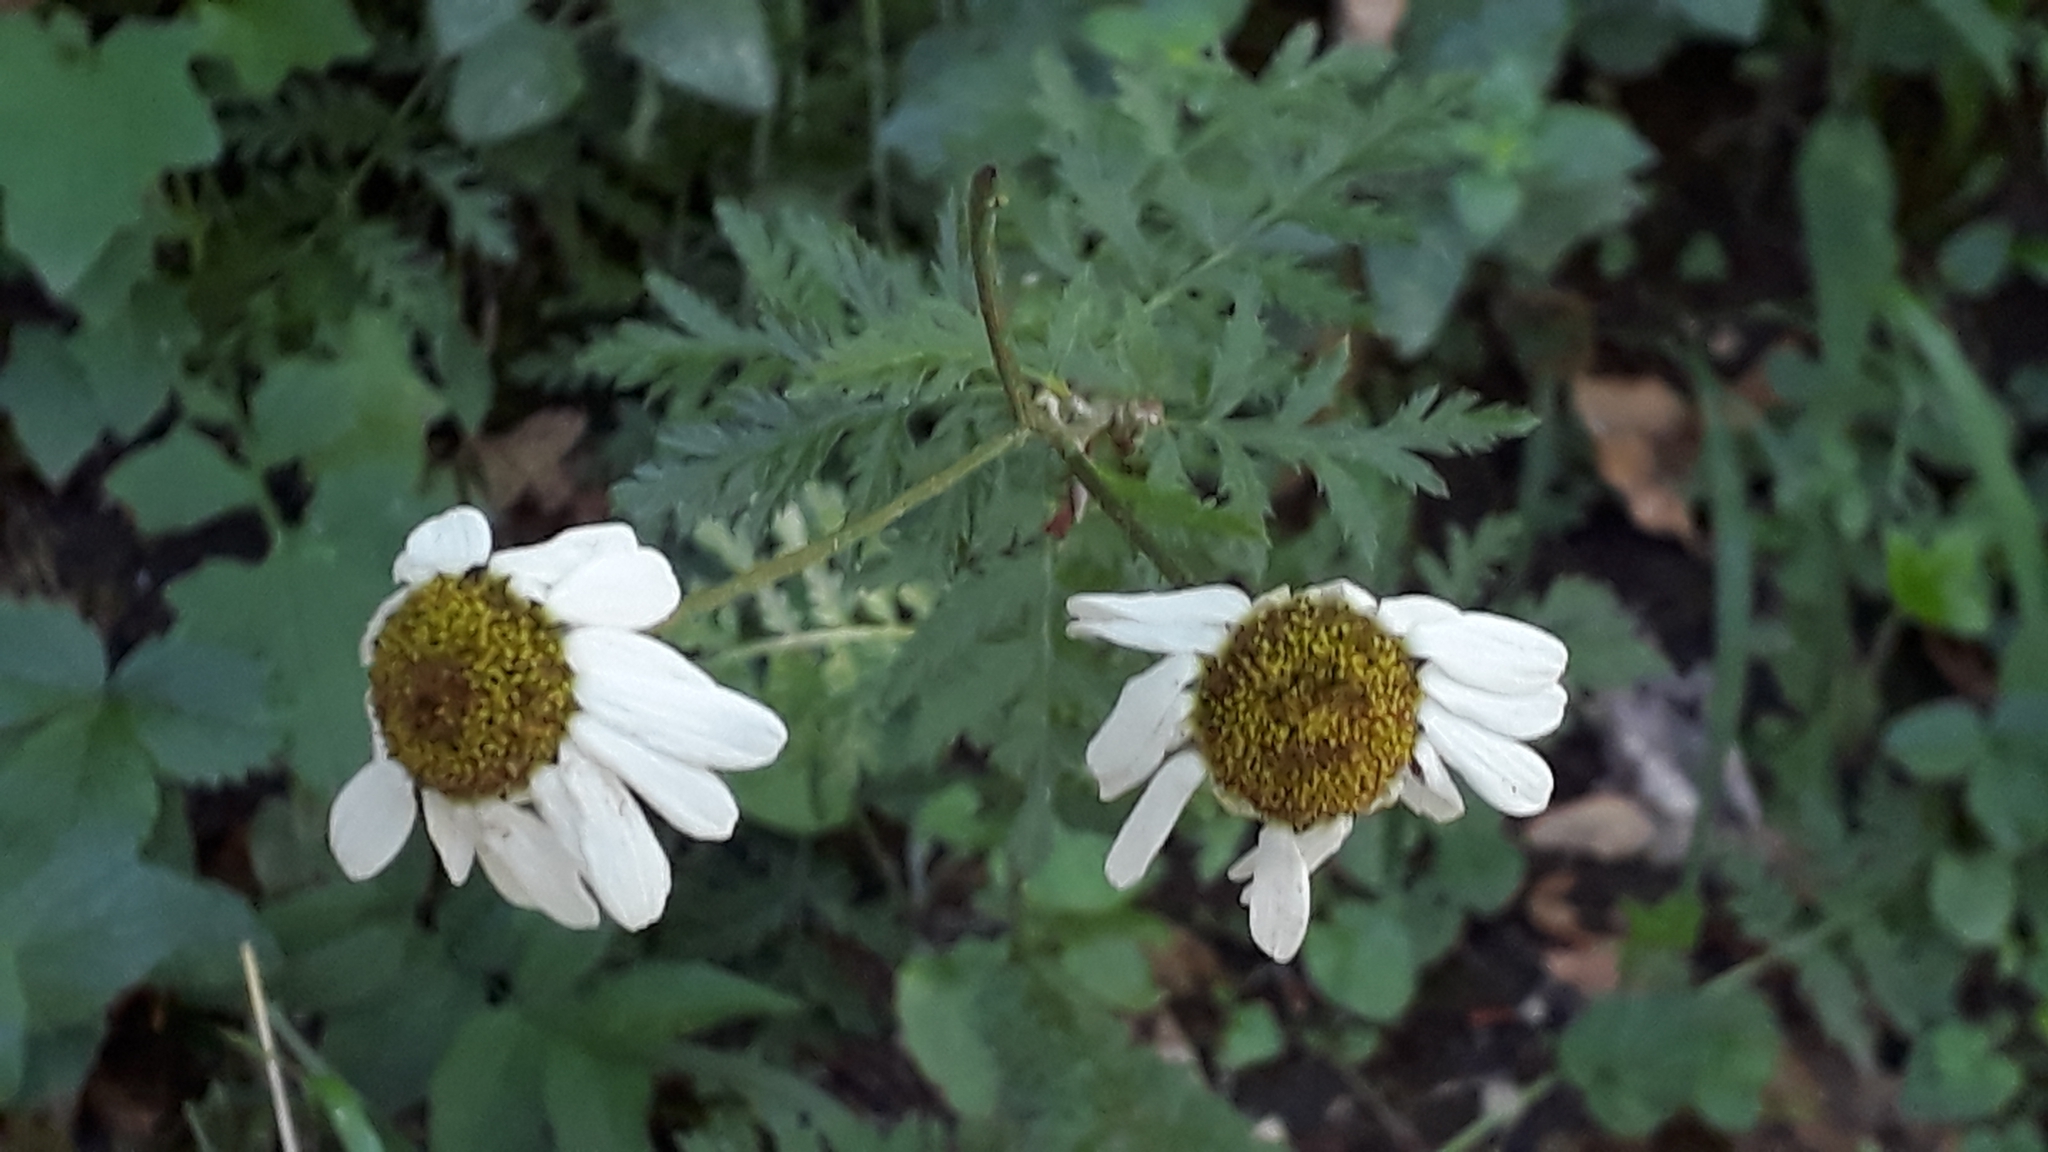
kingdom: Plantae
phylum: Tracheophyta
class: Magnoliopsida
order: Asterales
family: Asteraceae
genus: Tanacetum
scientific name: Tanacetum corymbosum
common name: Scentless feverfew
